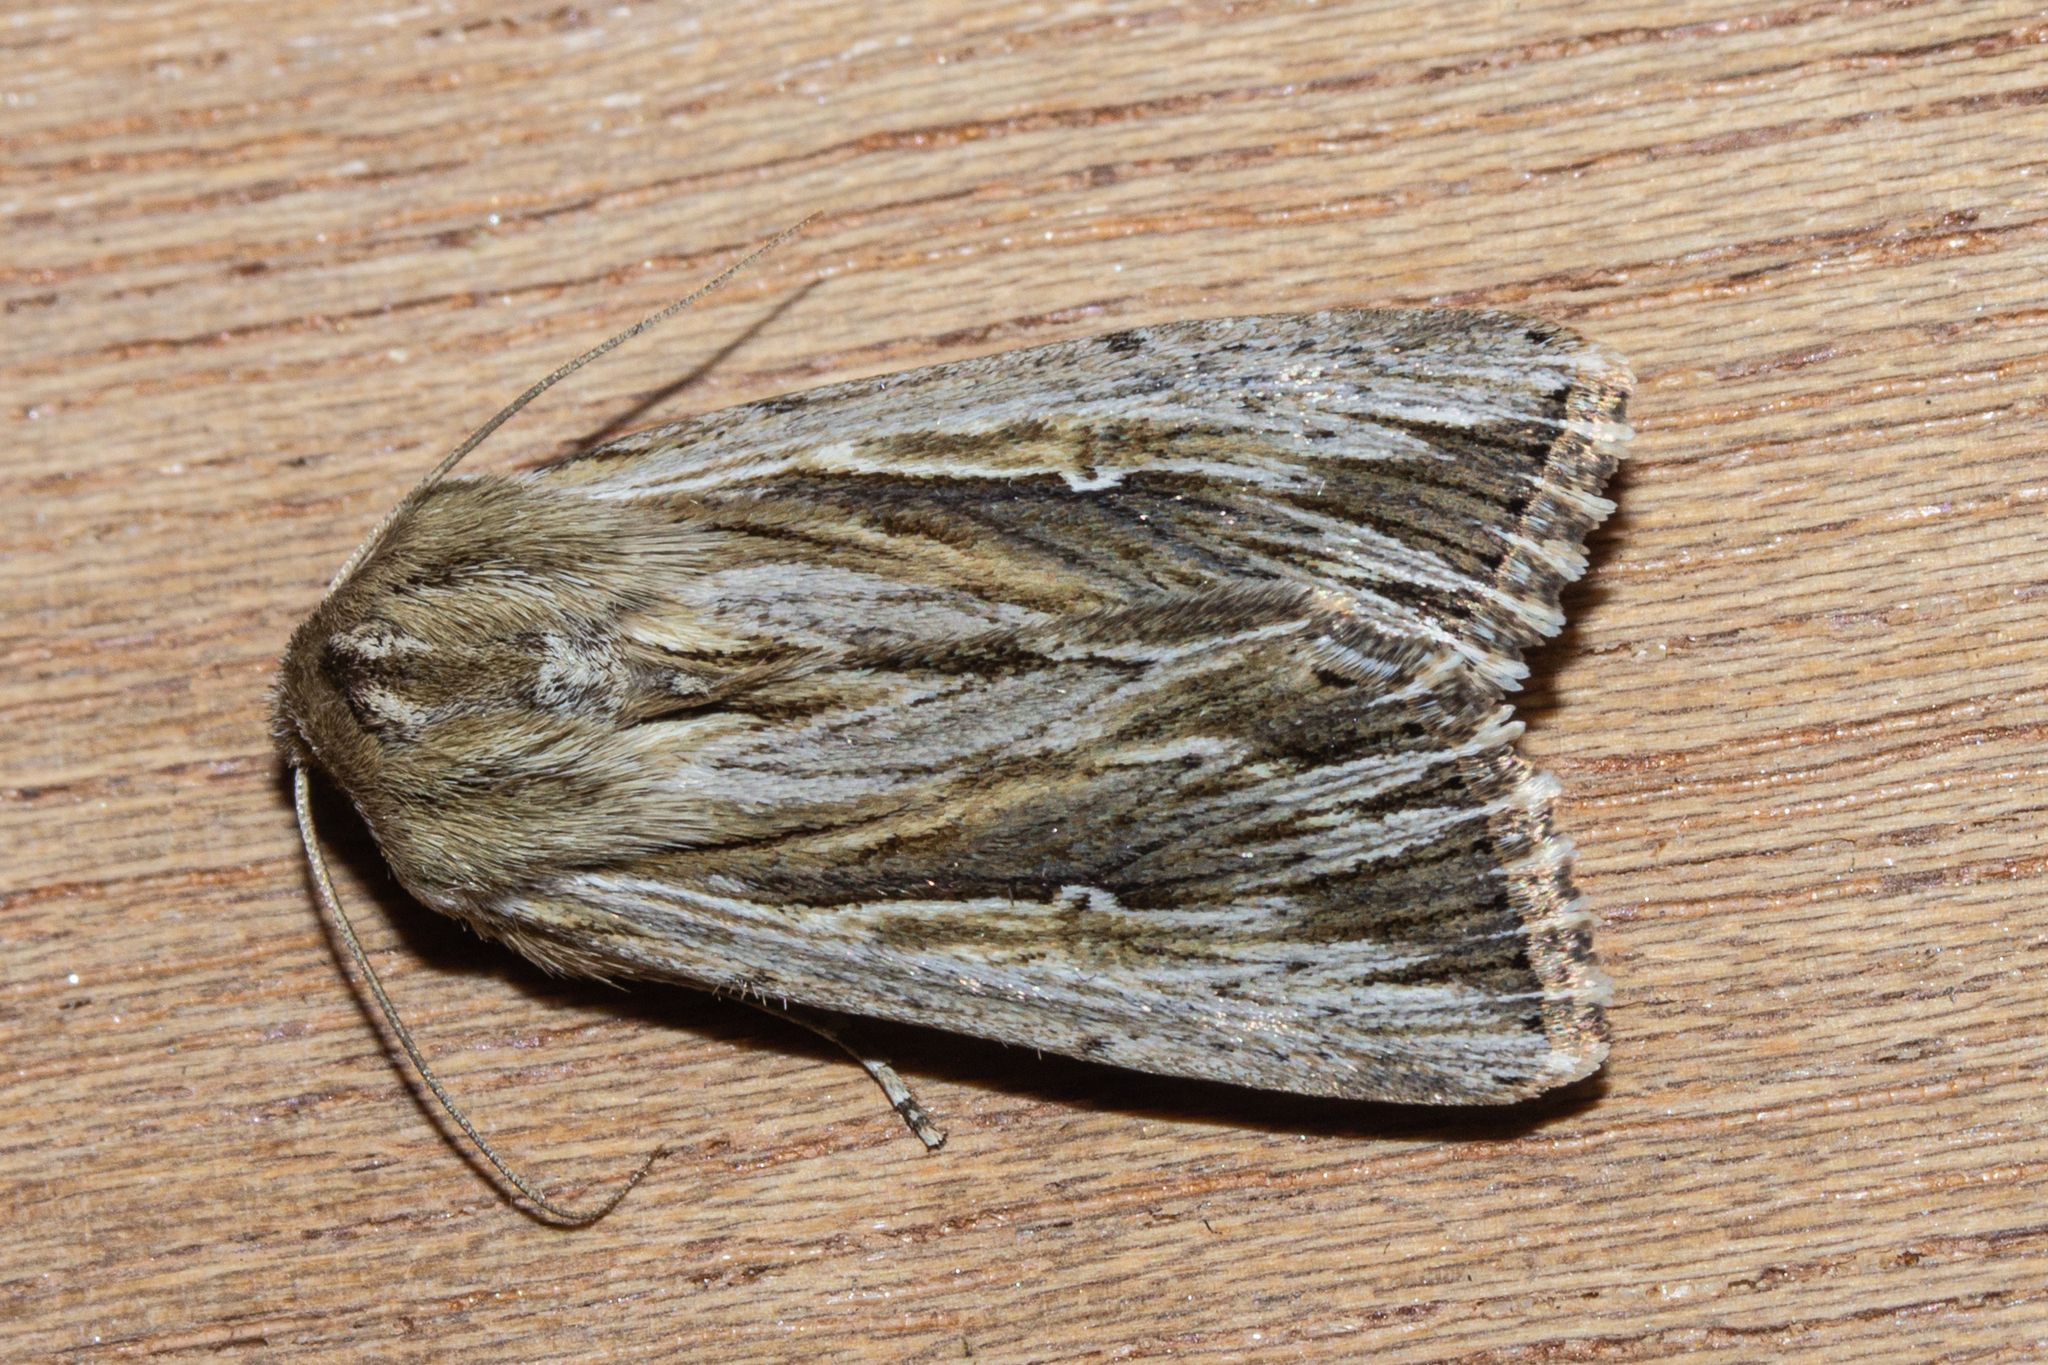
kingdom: Animalia
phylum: Arthropoda
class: Insecta
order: Lepidoptera
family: Noctuidae
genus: Persectania
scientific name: Persectania aversa
